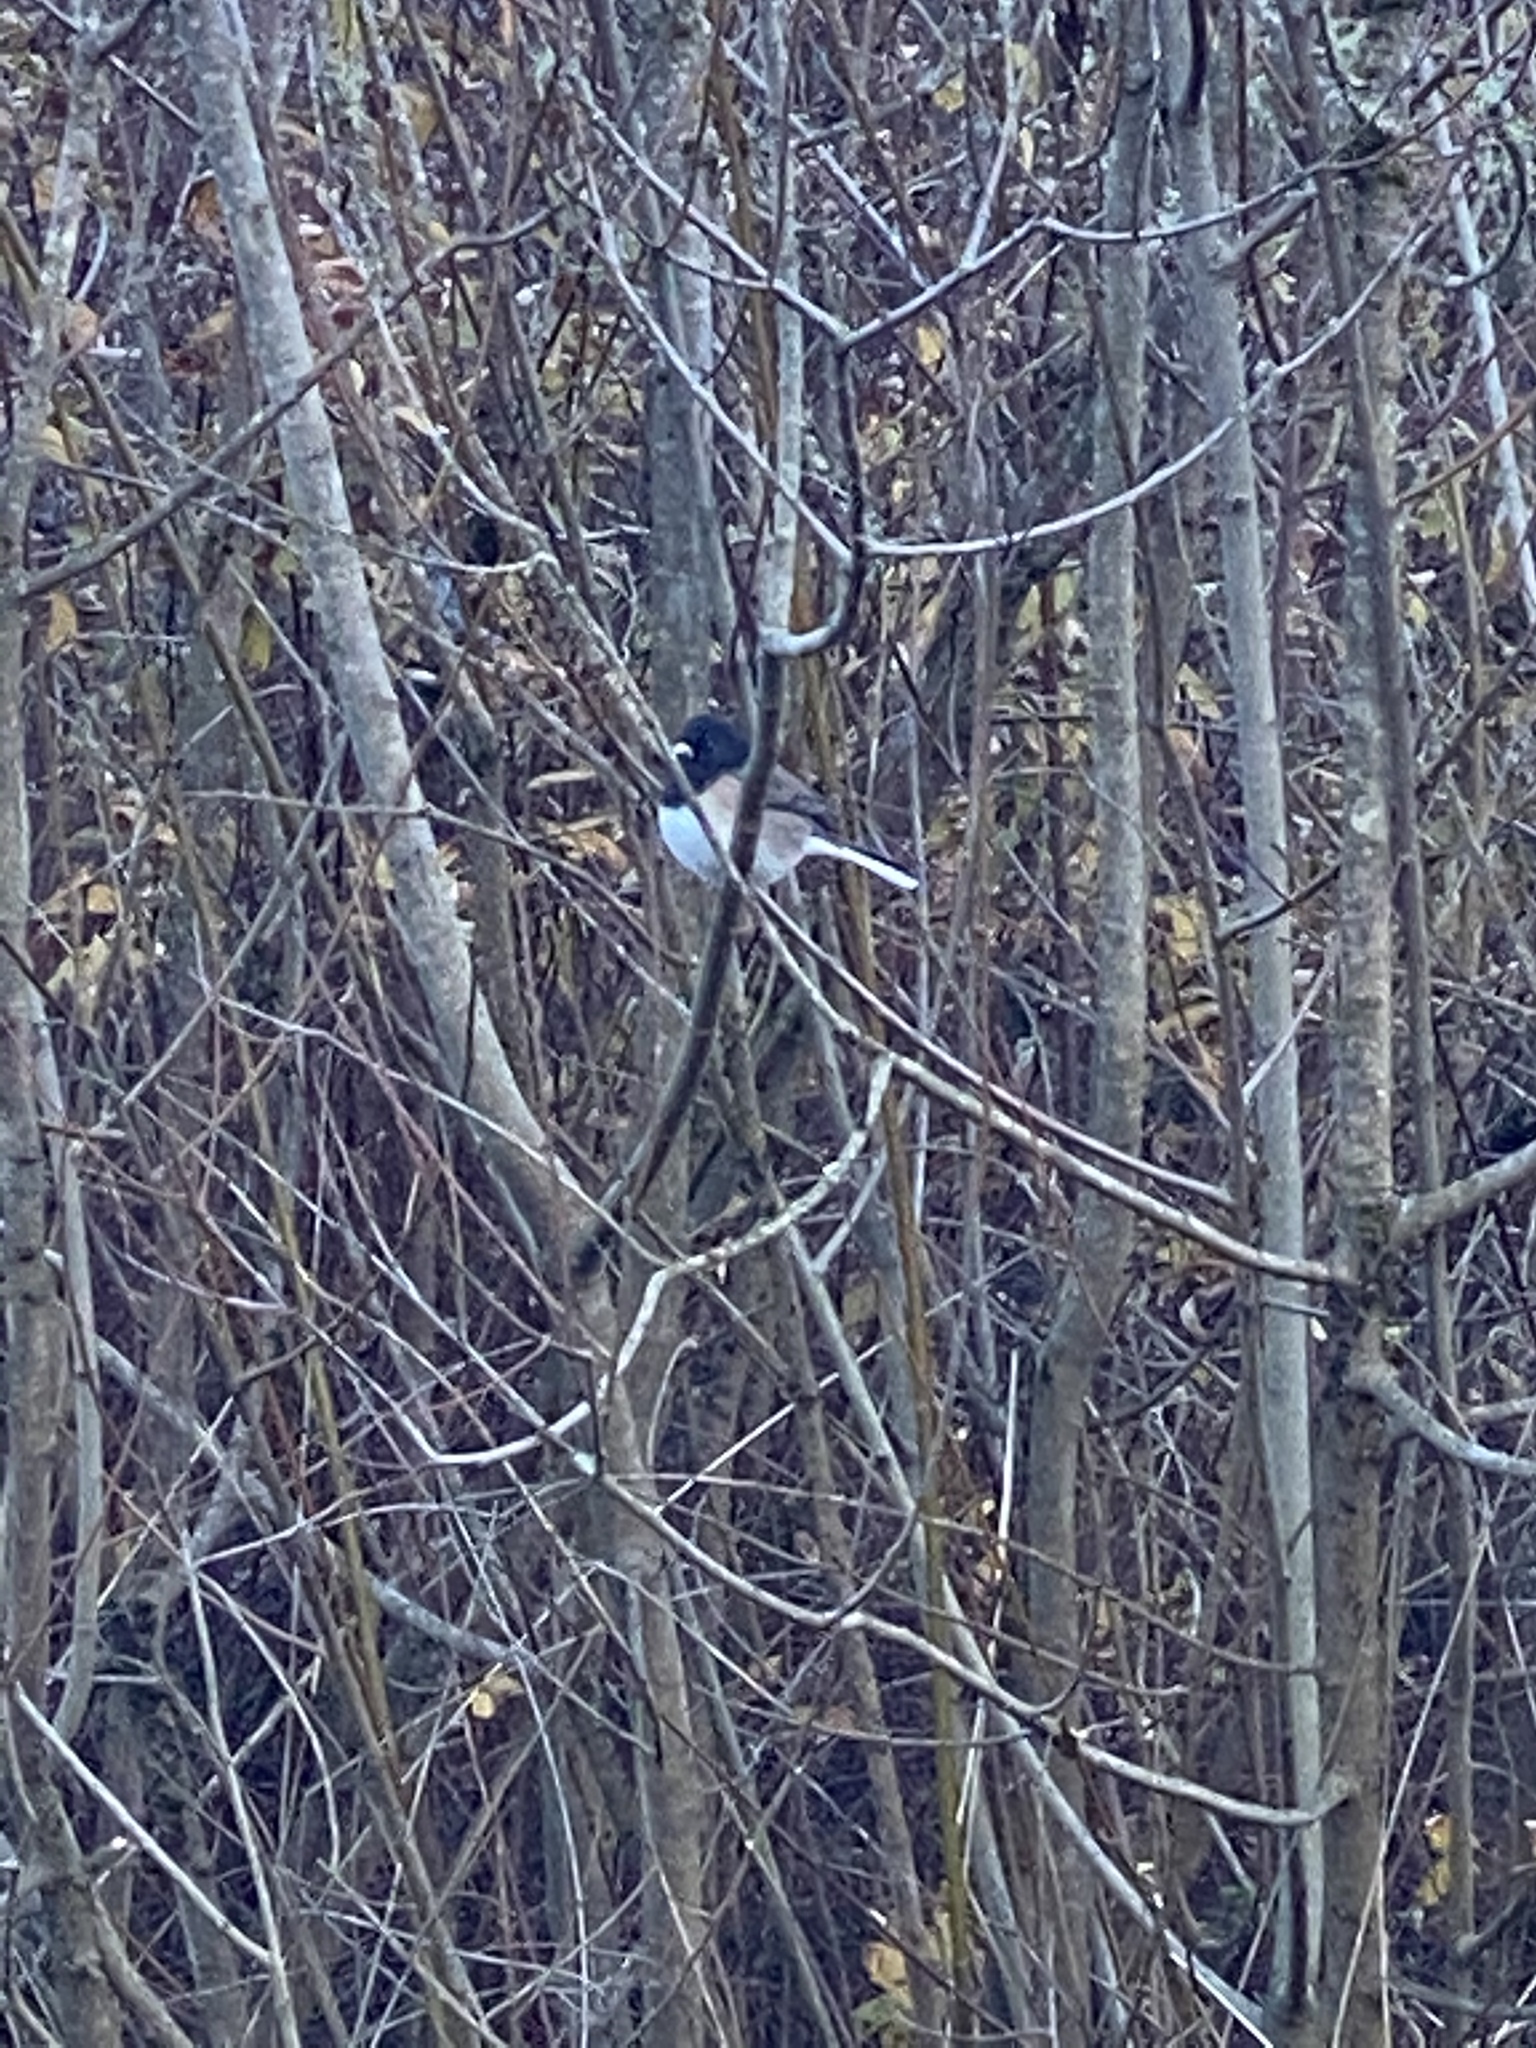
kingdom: Animalia
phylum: Chordata
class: Aves
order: Passeriformes
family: Passerellidae
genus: Junco
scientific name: Junco hyemalis
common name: Dark-eyed junco
